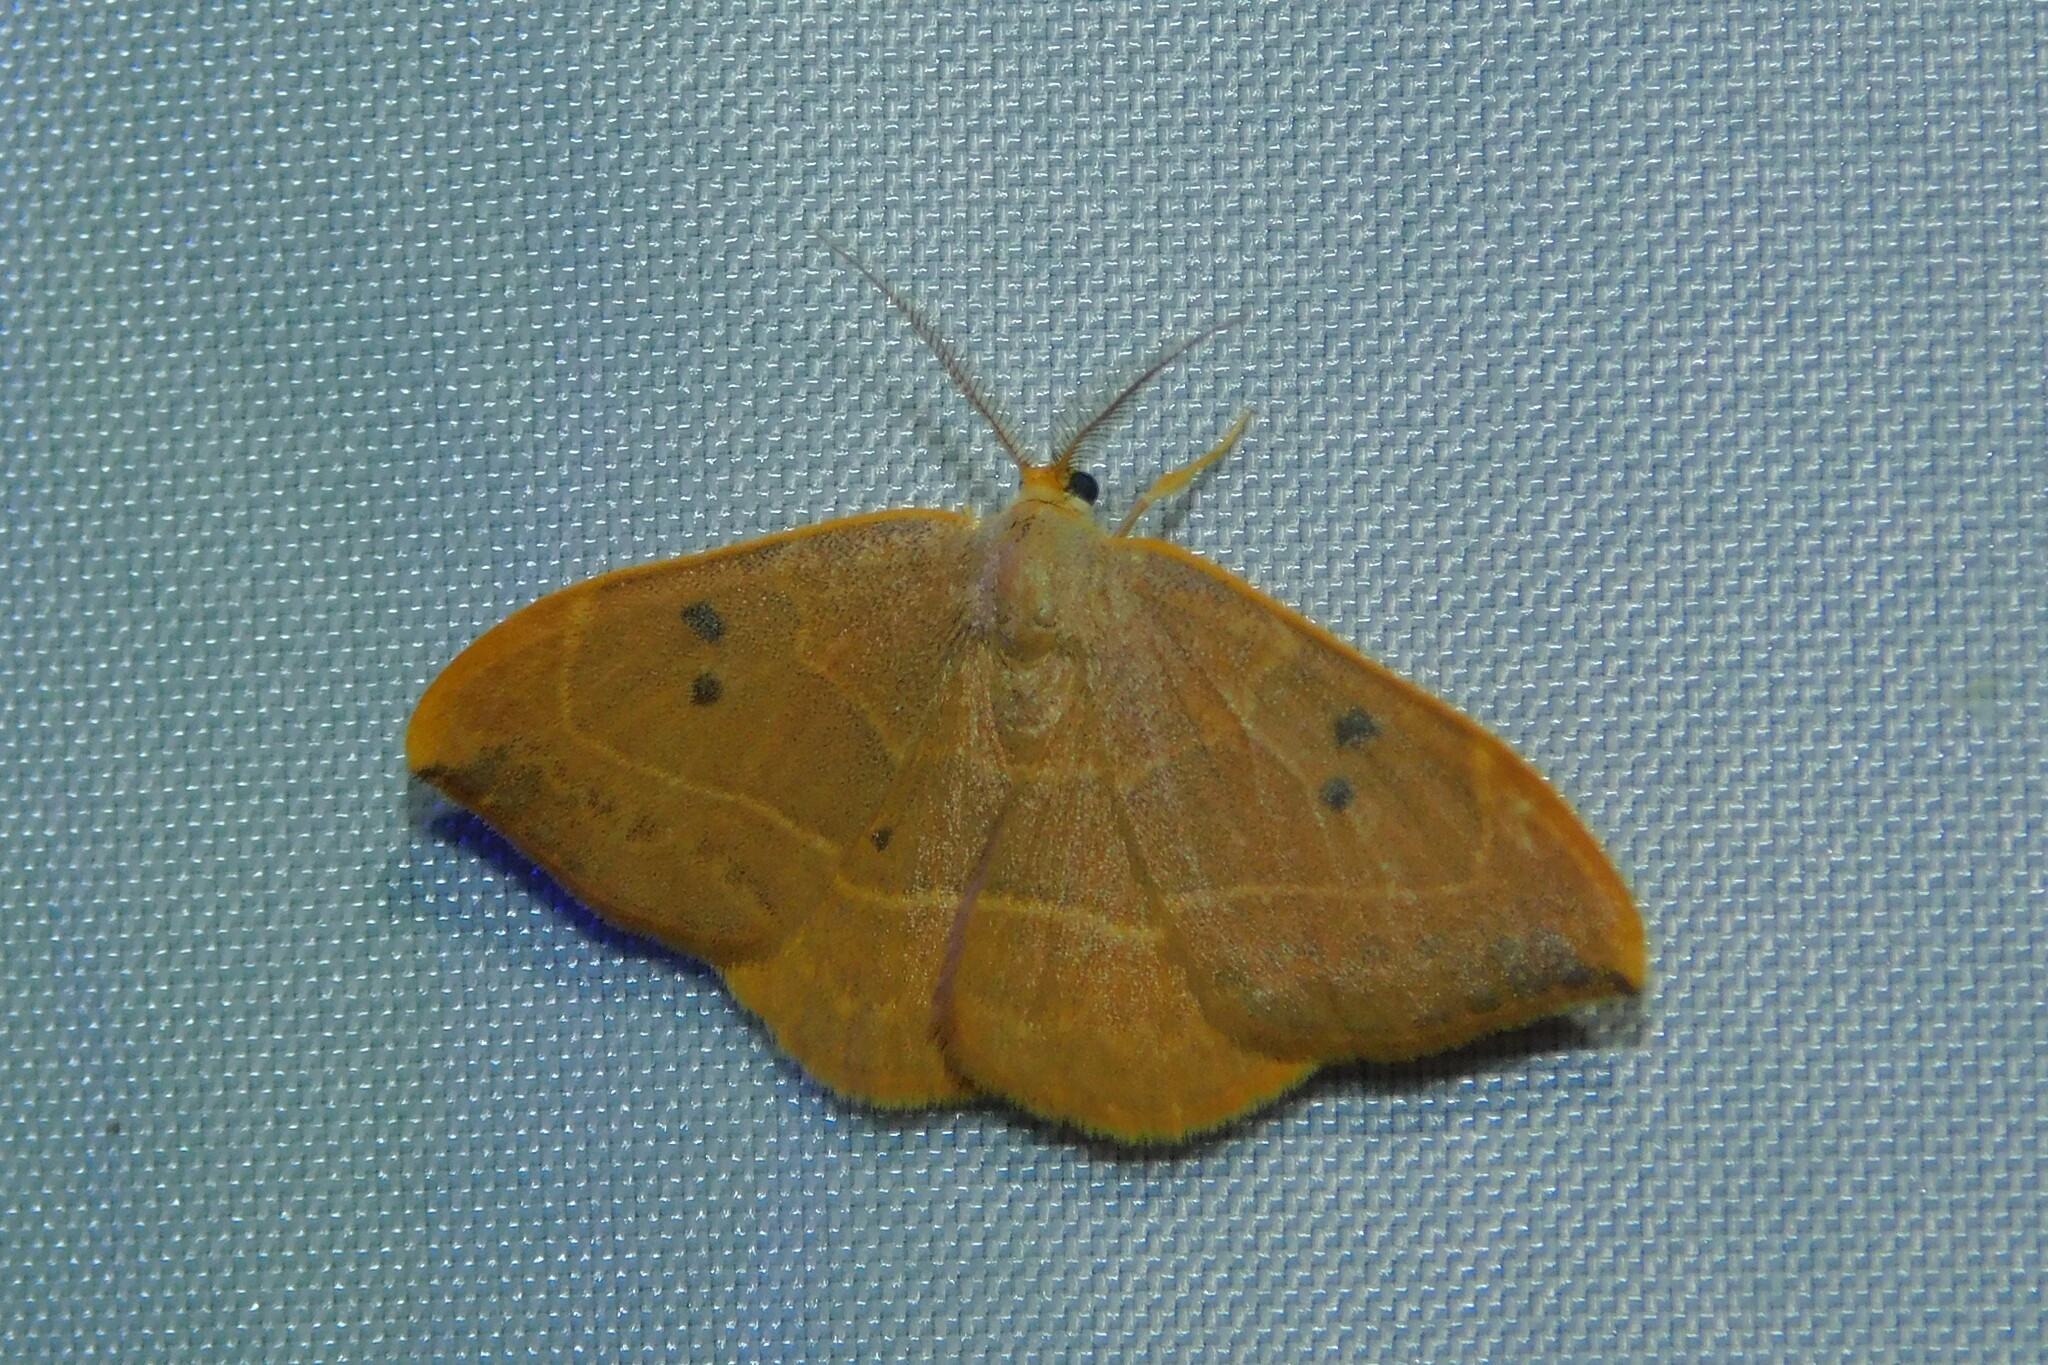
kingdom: Animalia
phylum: Arthropoda
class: Insecta
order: Lepidoptera
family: Drepanidae
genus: Watsonalla
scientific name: Watsonalla binaria
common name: Oak hook-tip
